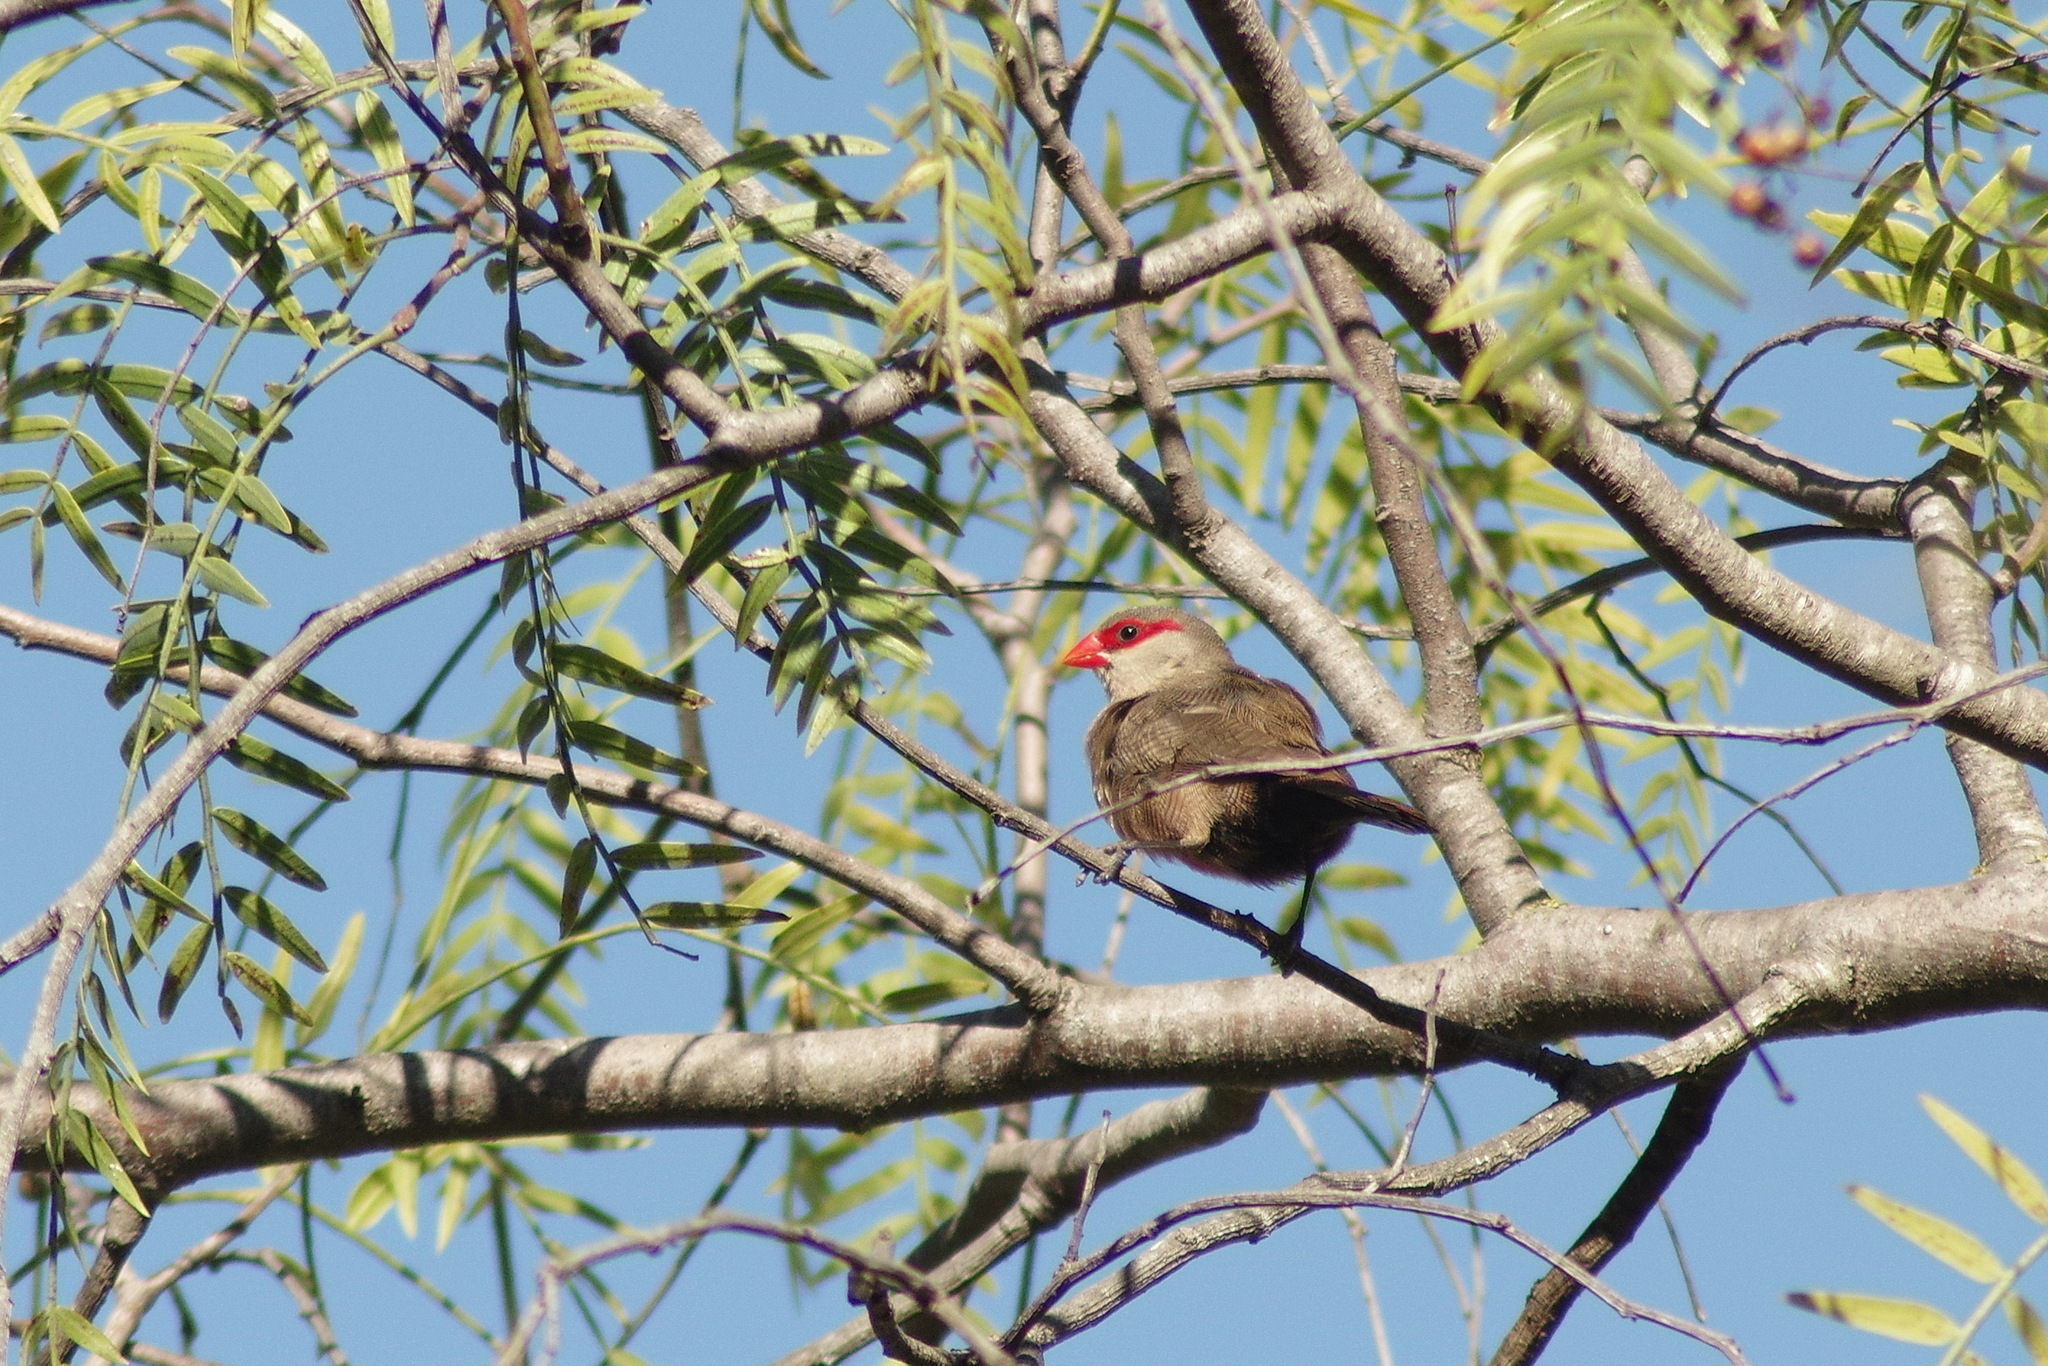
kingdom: Animalia
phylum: Chordata
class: Aves
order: Passeriformes
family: Estrildidae
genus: Estrilda
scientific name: Estrilda astrild
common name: Common waxbill
